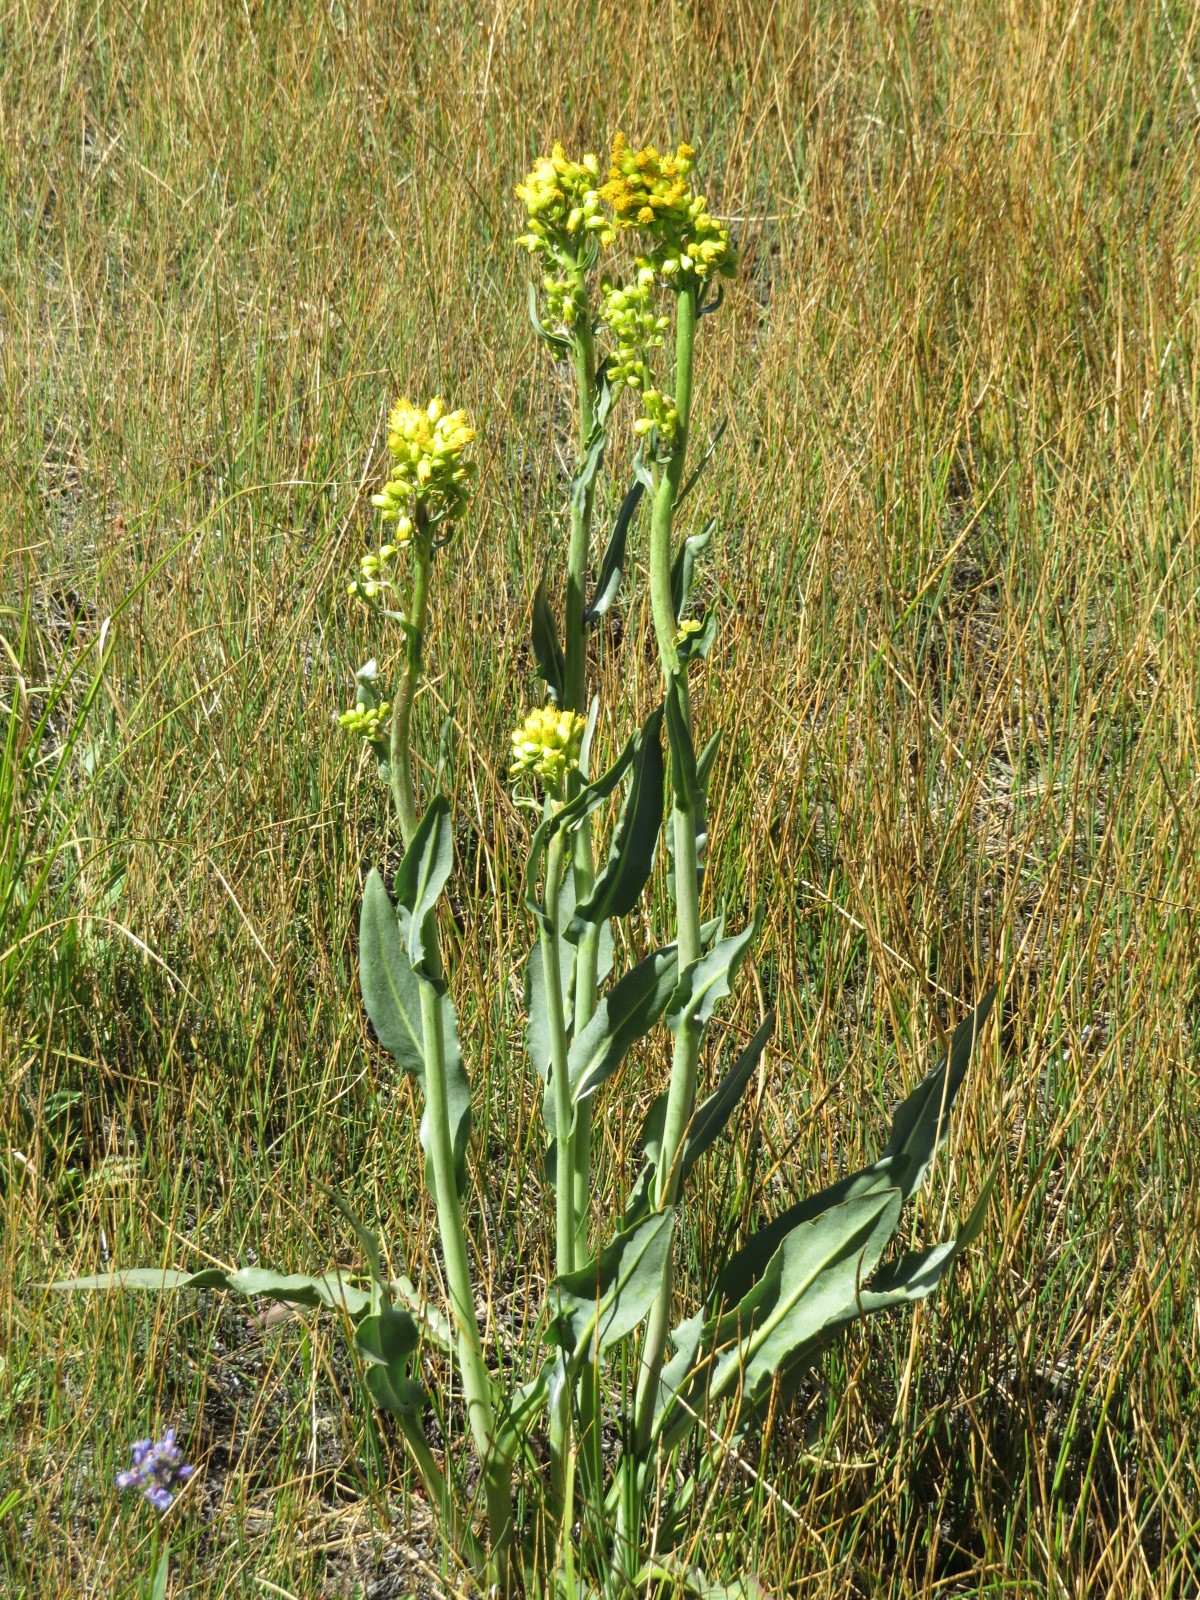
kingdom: Plantae
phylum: Tracheophyta
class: Magnoliopsida
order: Asterales
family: Asteraceae
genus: Senecio
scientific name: Senecio hydrophilus
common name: Water ragwort
